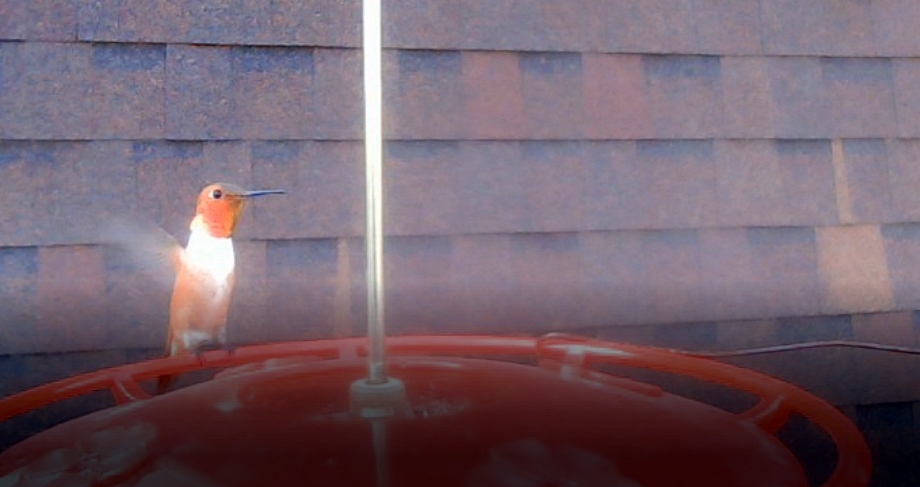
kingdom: Animalia
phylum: Chordata
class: Aves
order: Apodiformes
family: Trochilidae
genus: Selasphorus
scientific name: Selasphorus rufus
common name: Rufous hummingbird
